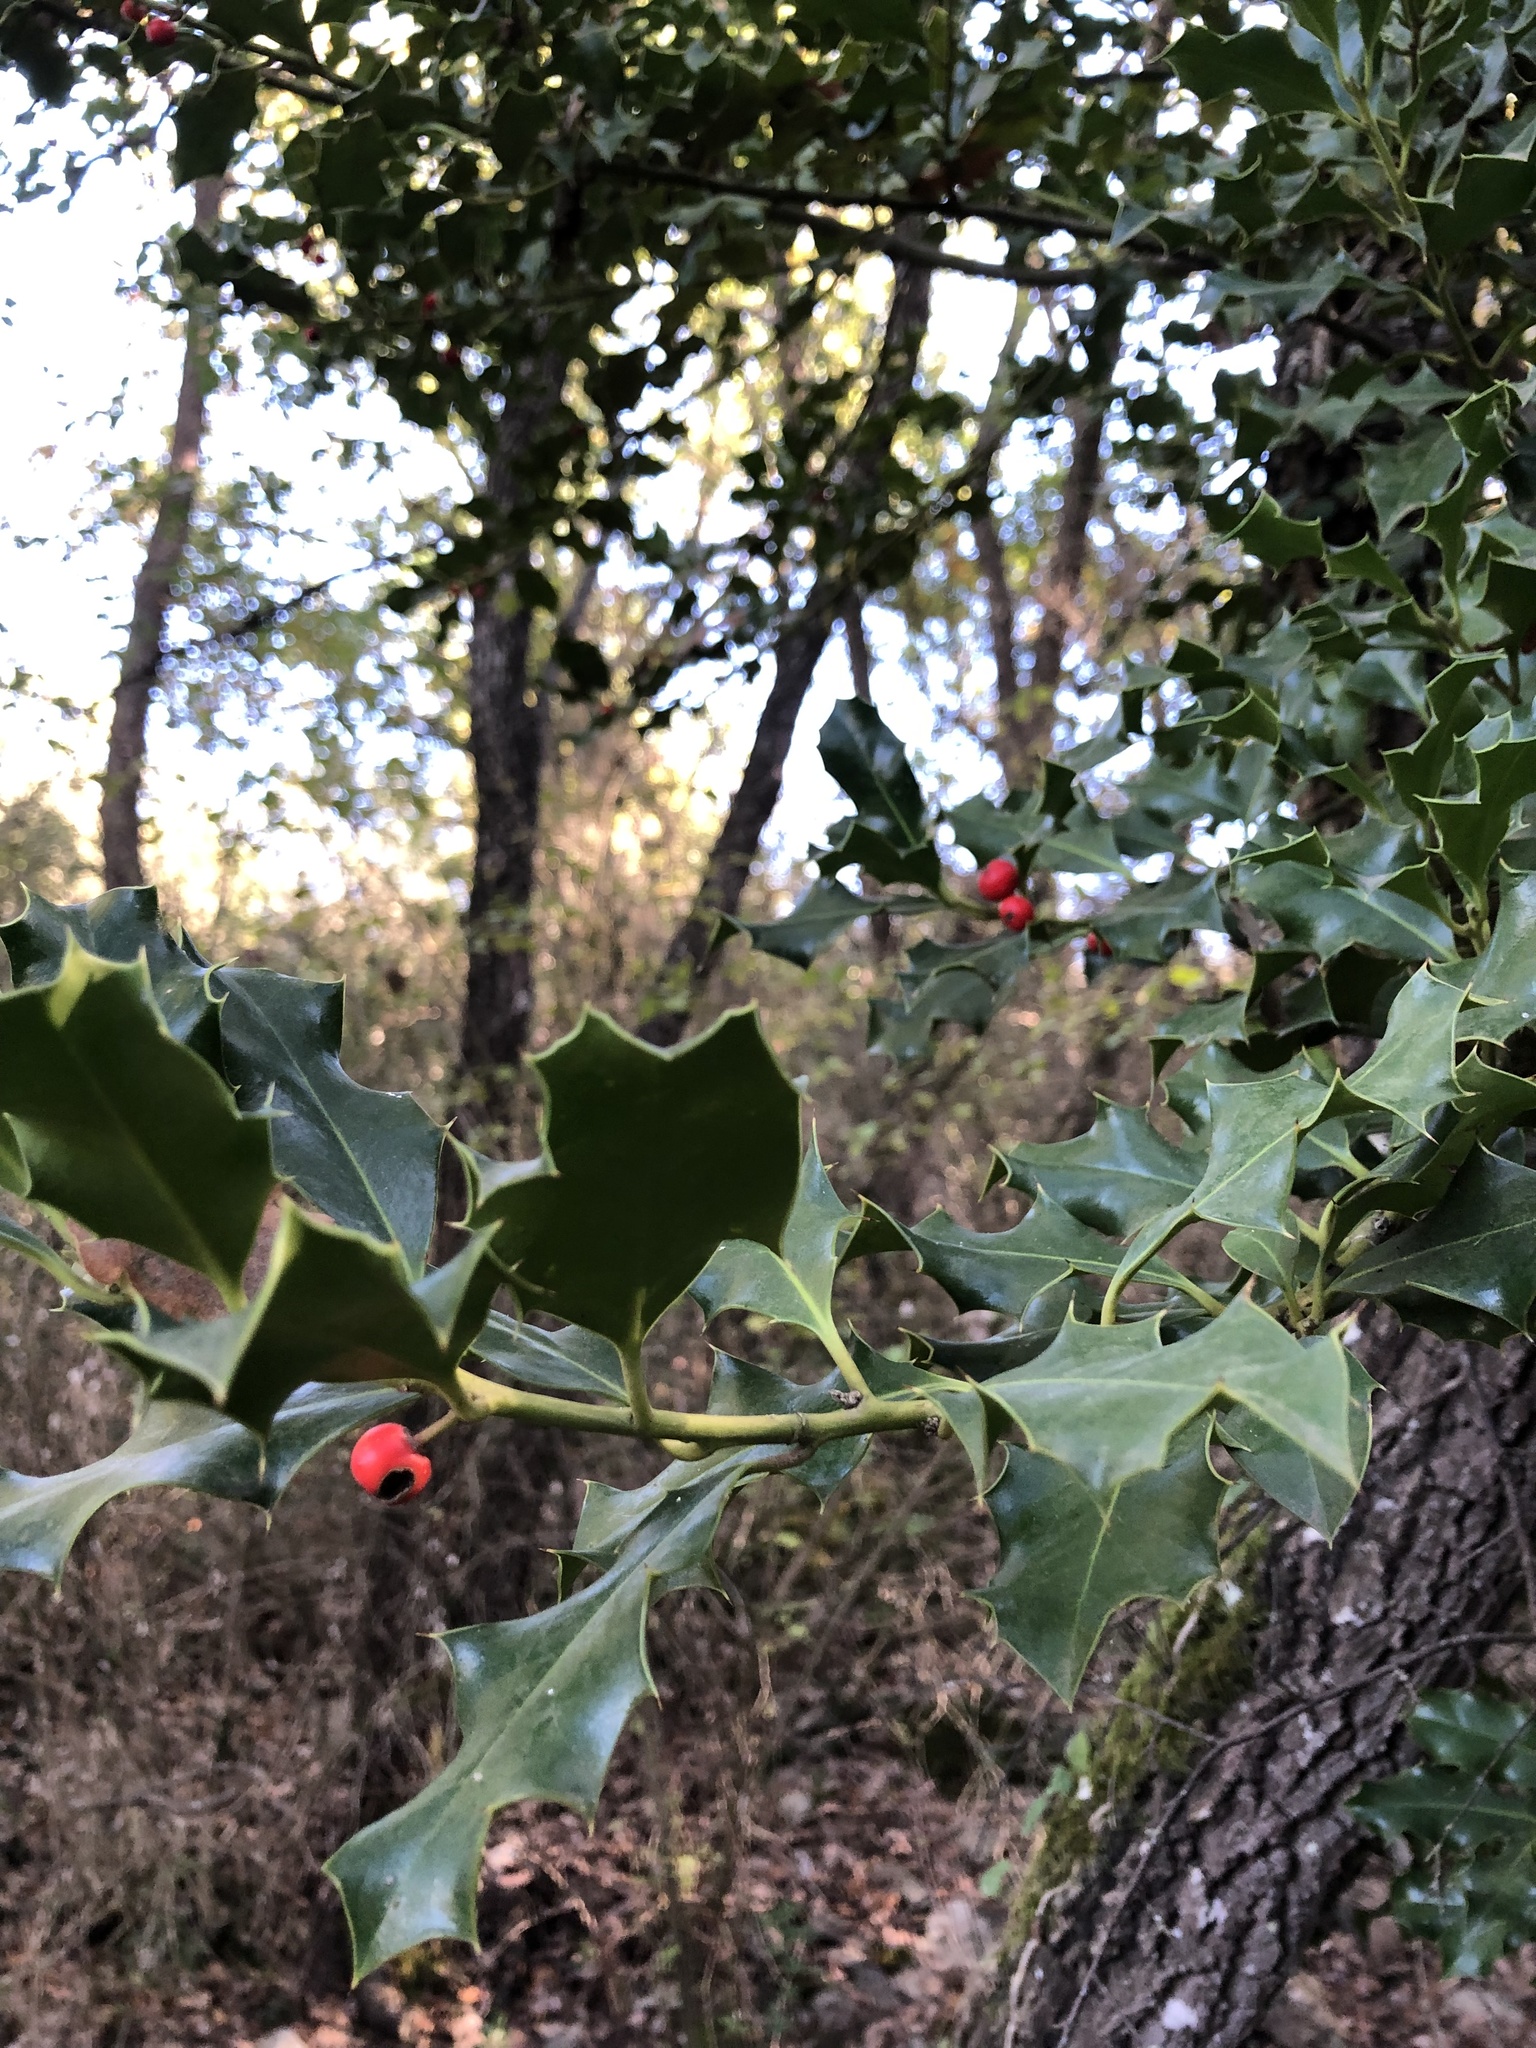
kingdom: Plantae
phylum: Tracheophyta
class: Magnoliopsida
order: Aquifoliales
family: Aquifoliaceae
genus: Ilex
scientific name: Ilex aquifolium
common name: English holly
